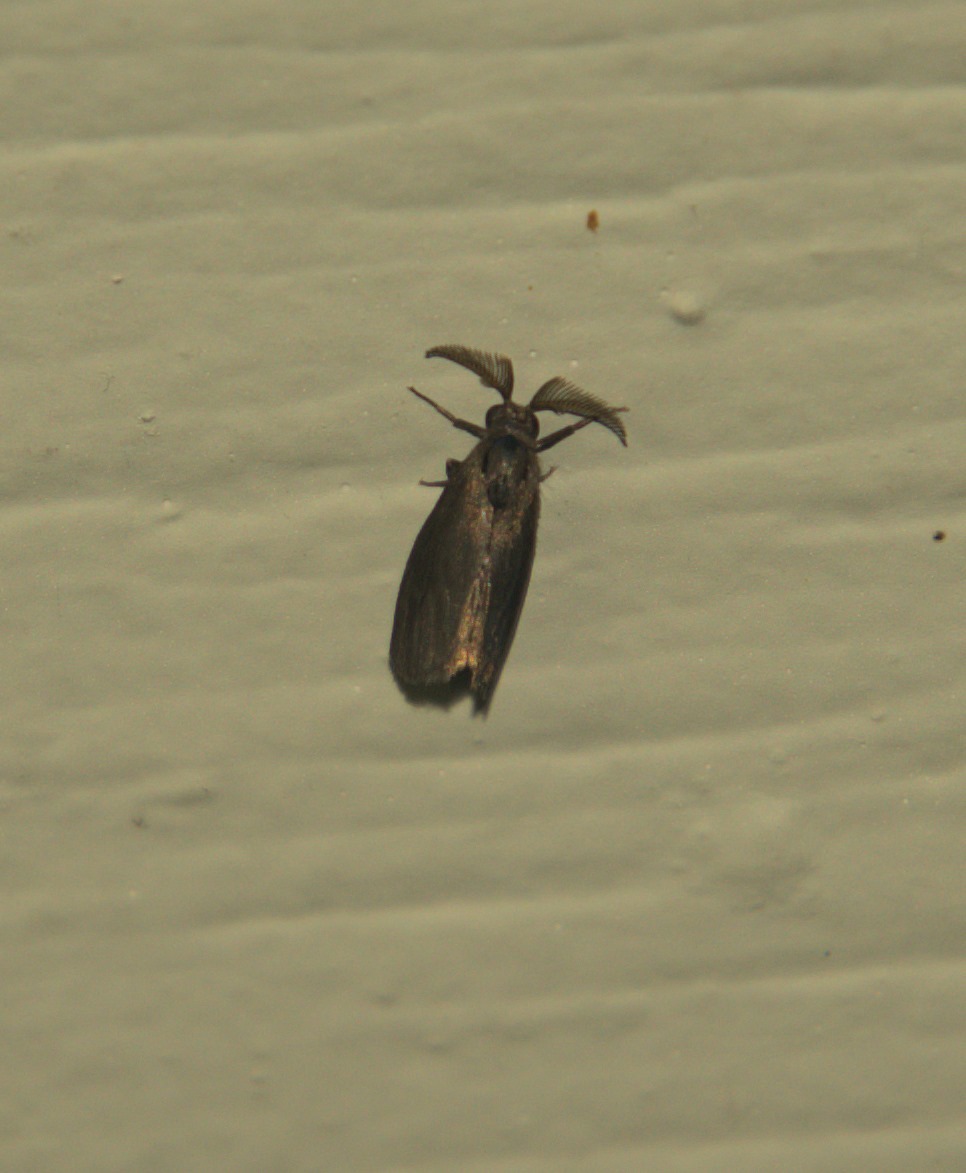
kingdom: Animalia
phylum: Arthropoda
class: Insecta
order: Lepidoptera
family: Psychidae
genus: Cryptothelea
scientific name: Cryptothelea gloverii
